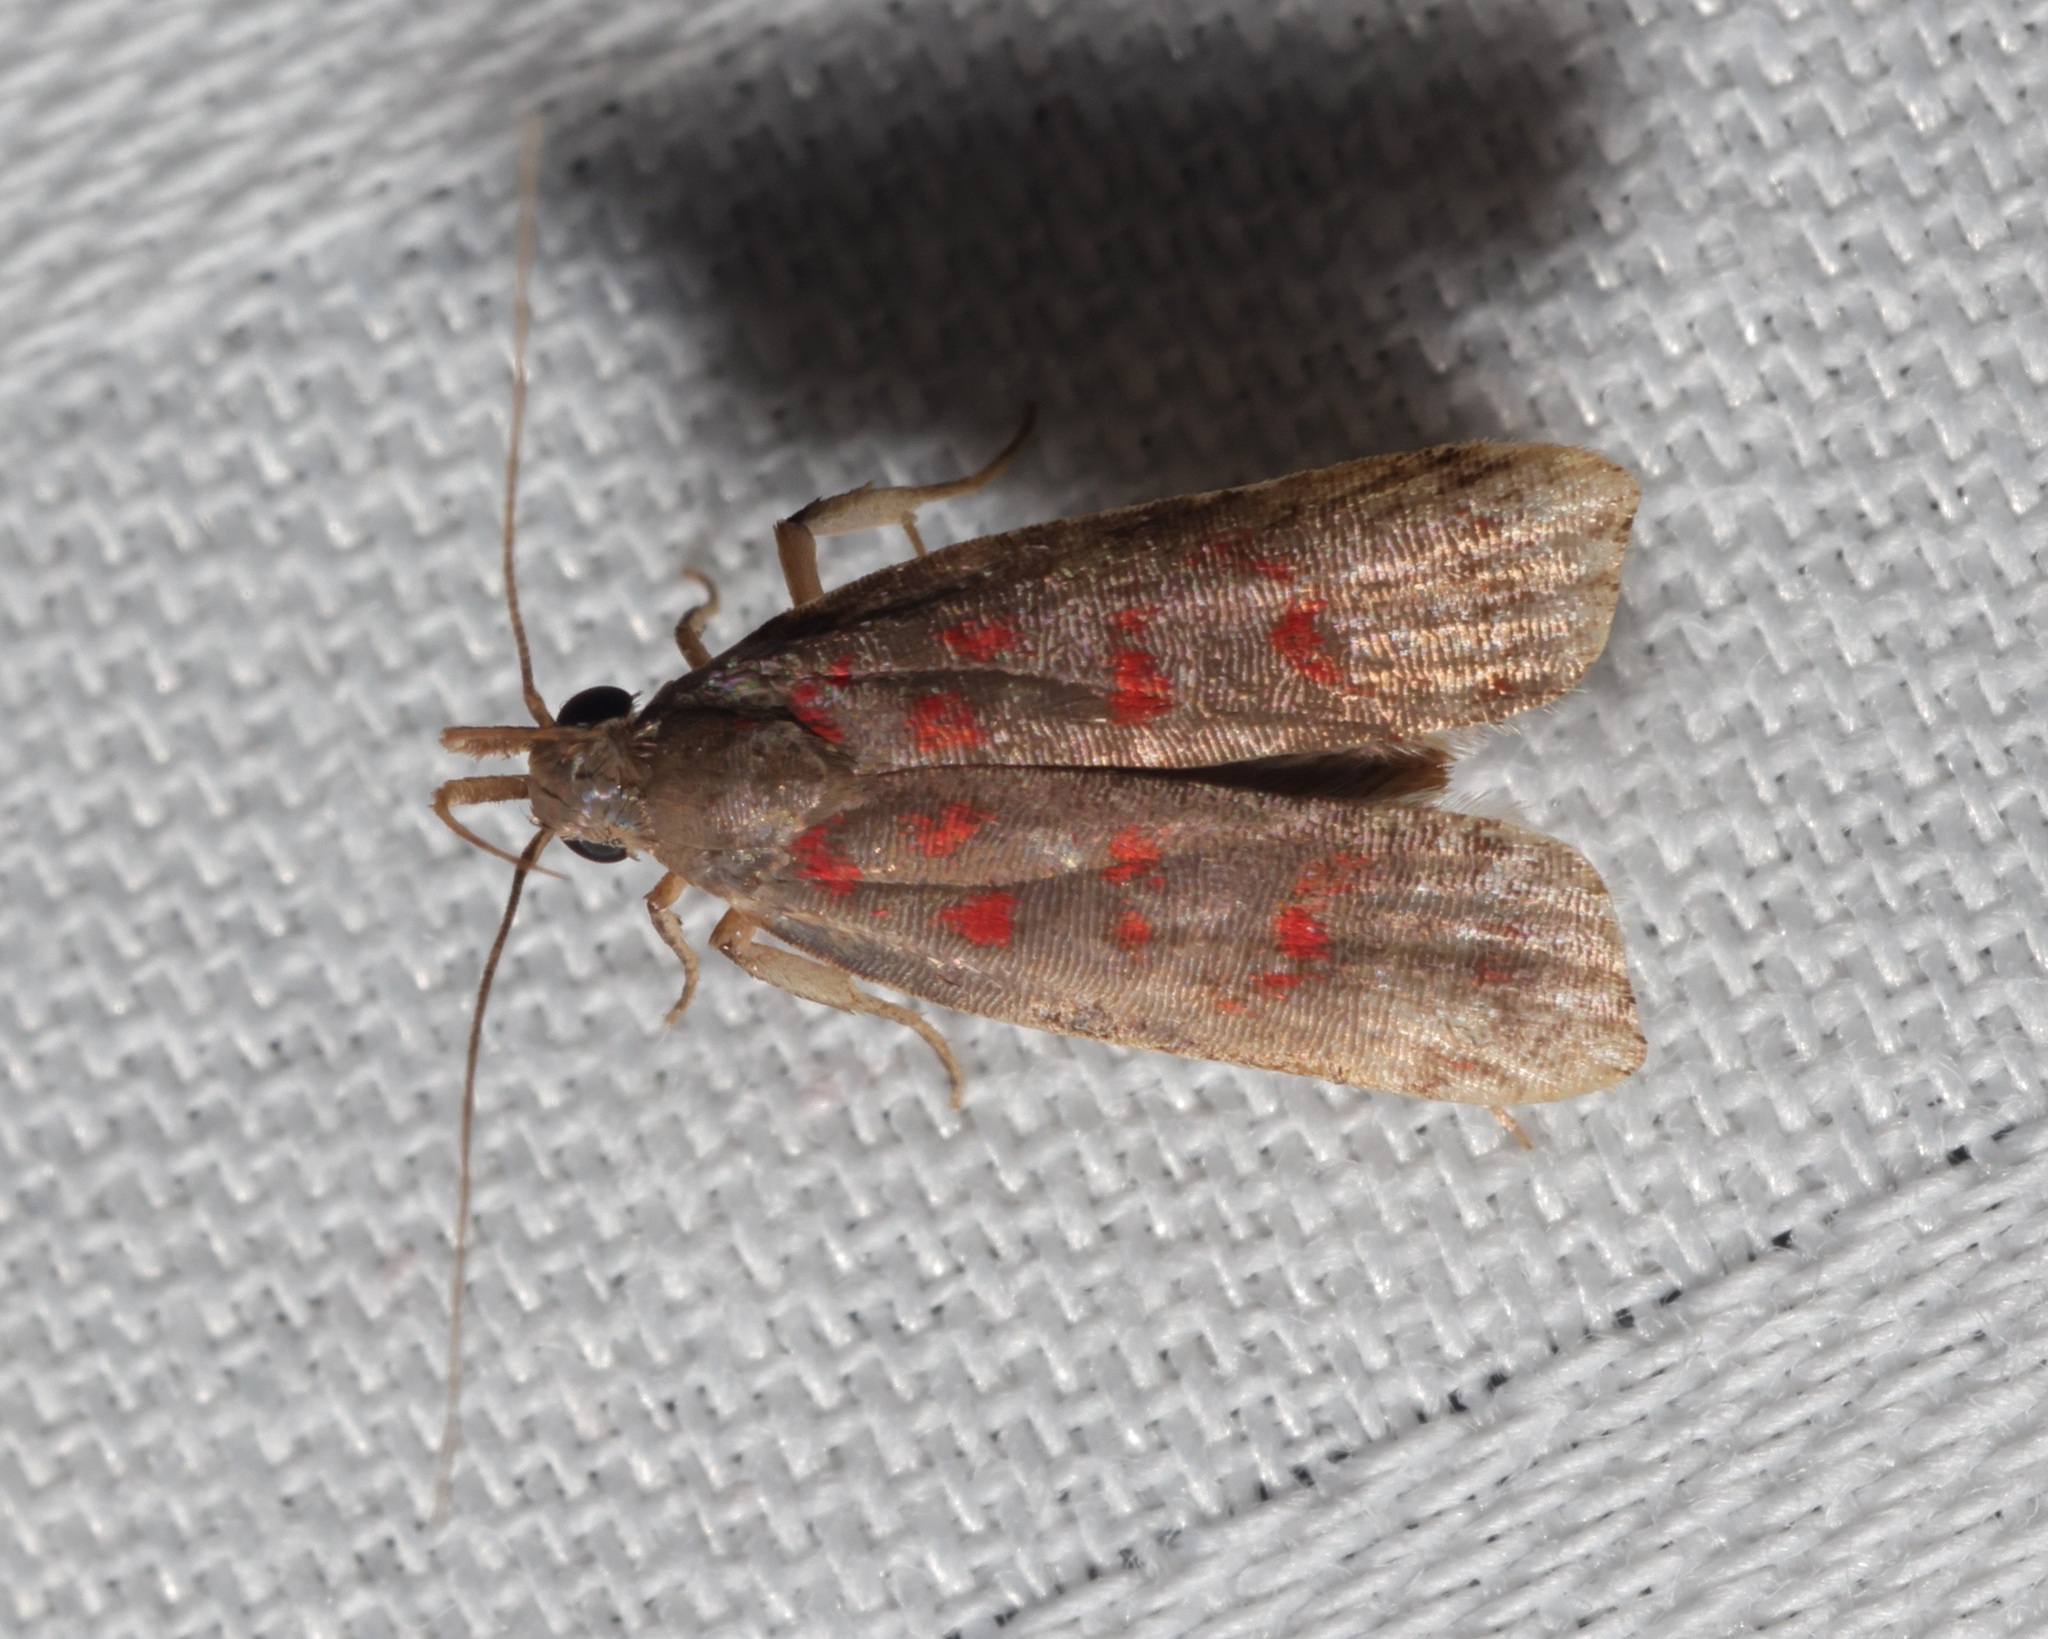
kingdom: Animalia
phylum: Arthropoda
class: Insecta
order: Lepidoptera
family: Gelechiidae
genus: Dichomeris
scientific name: Dichomeris sandycitis
